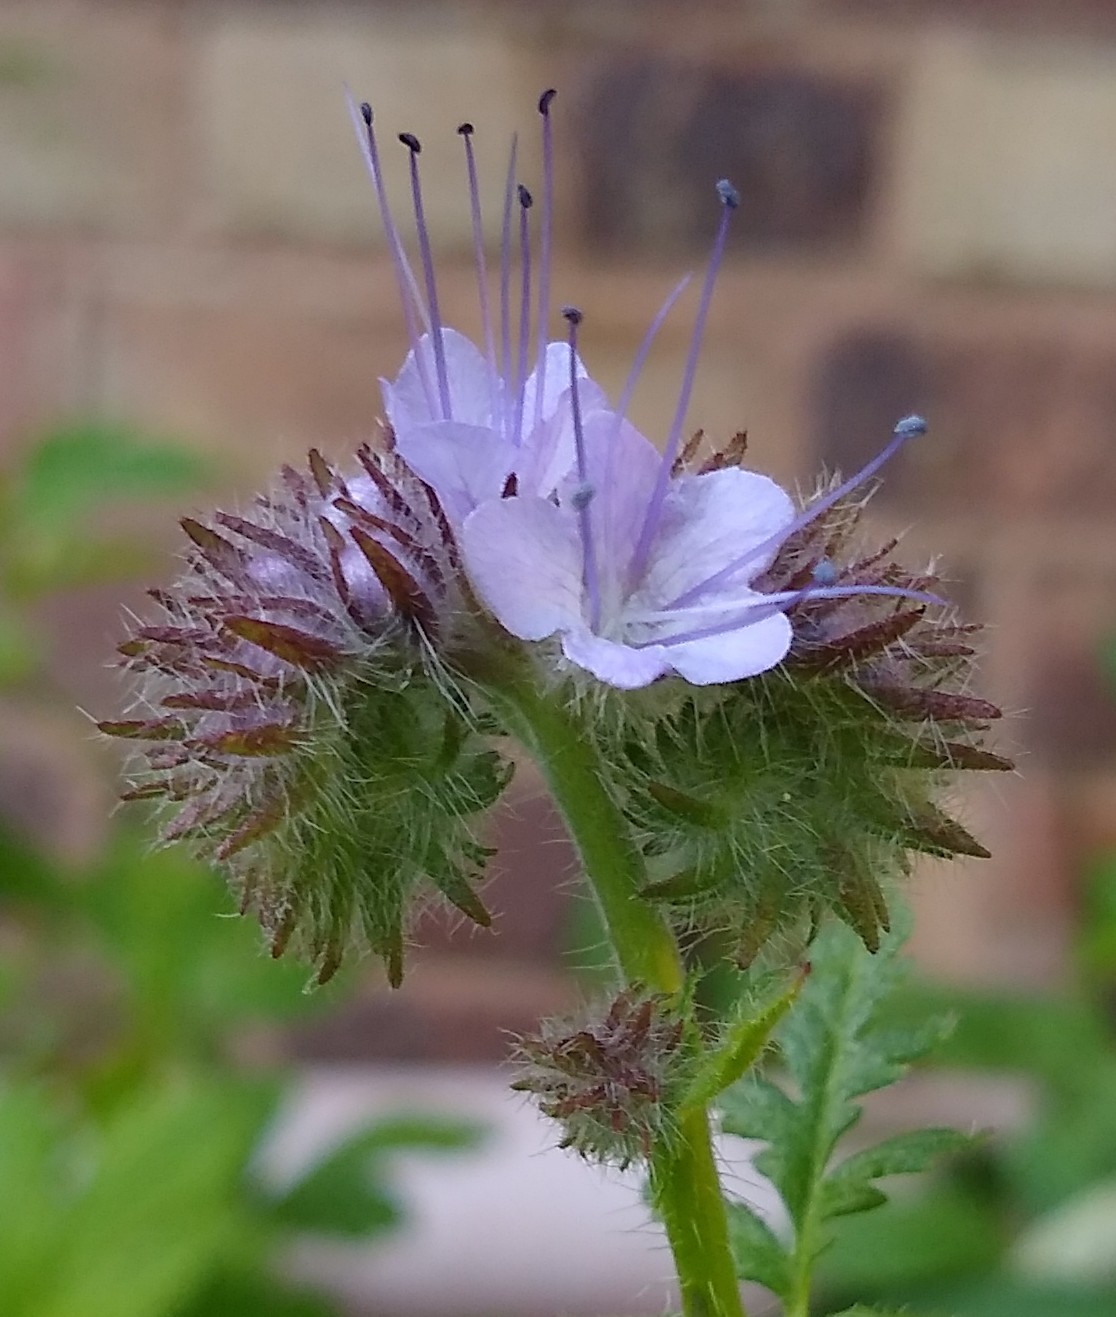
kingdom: Plantae
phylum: Tracheophyta
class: Magnoliopsida
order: Boraginales
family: Hydrophyllaceae
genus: Phacelia
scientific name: Phacelia tanacetifolia
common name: Phacelia
